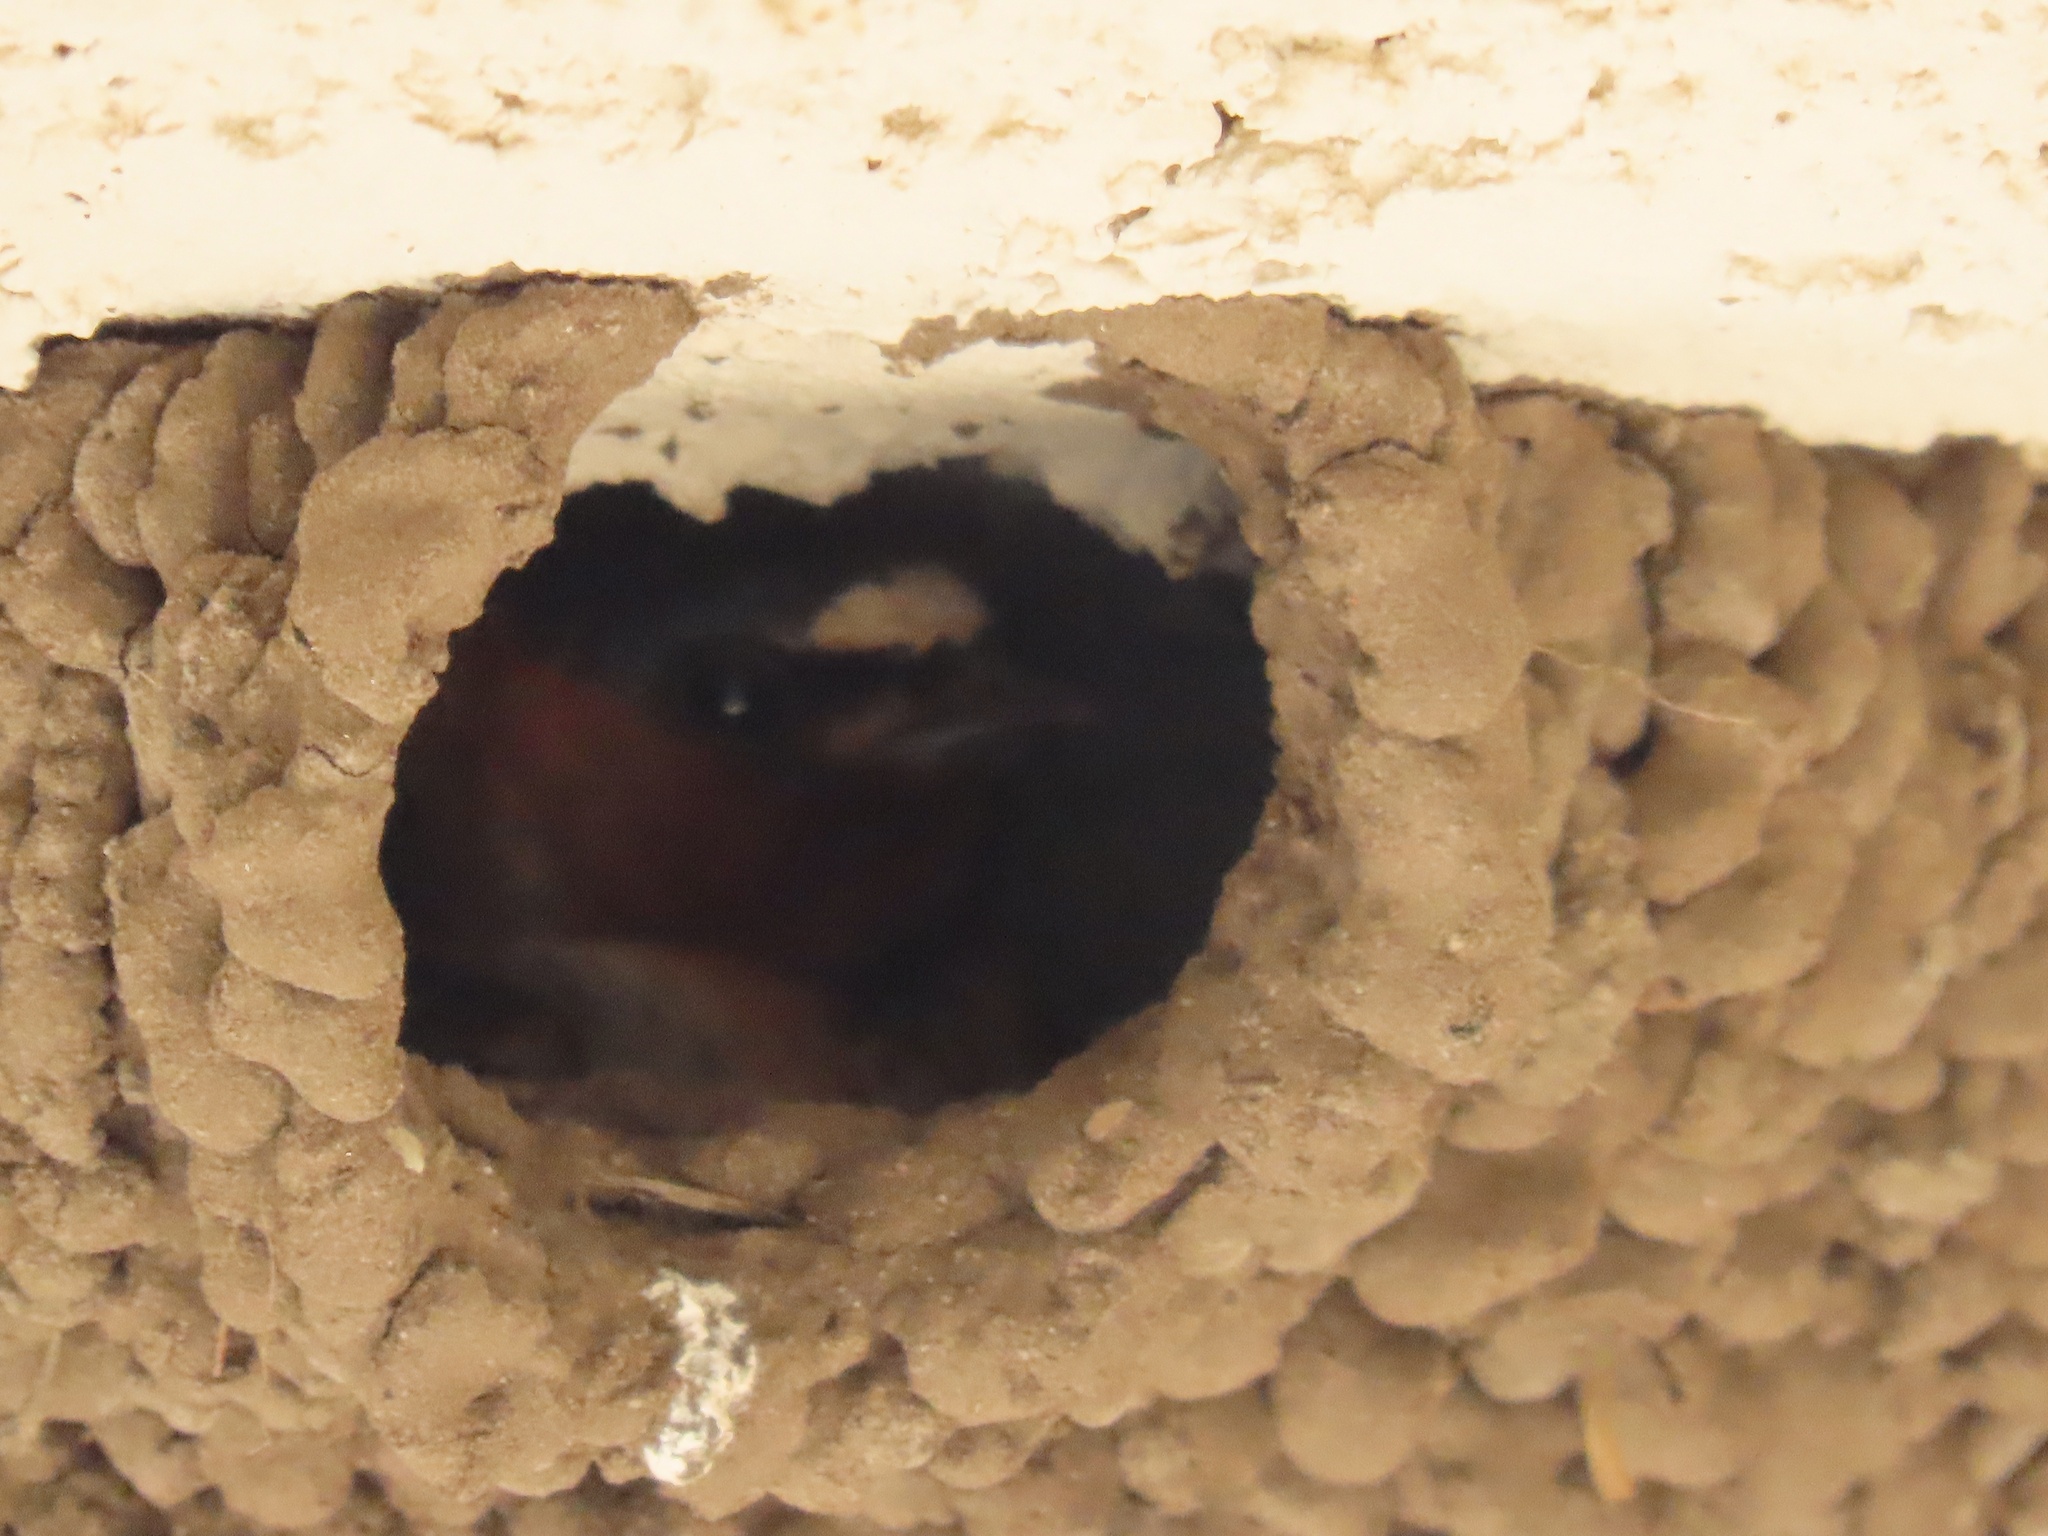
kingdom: Animalia
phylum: Chordata
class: Aves
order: Passeriformes
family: Hirundinidae
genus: Petrochelidon
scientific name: Petrochelidon pyrrhonota
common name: American cliff swallow
